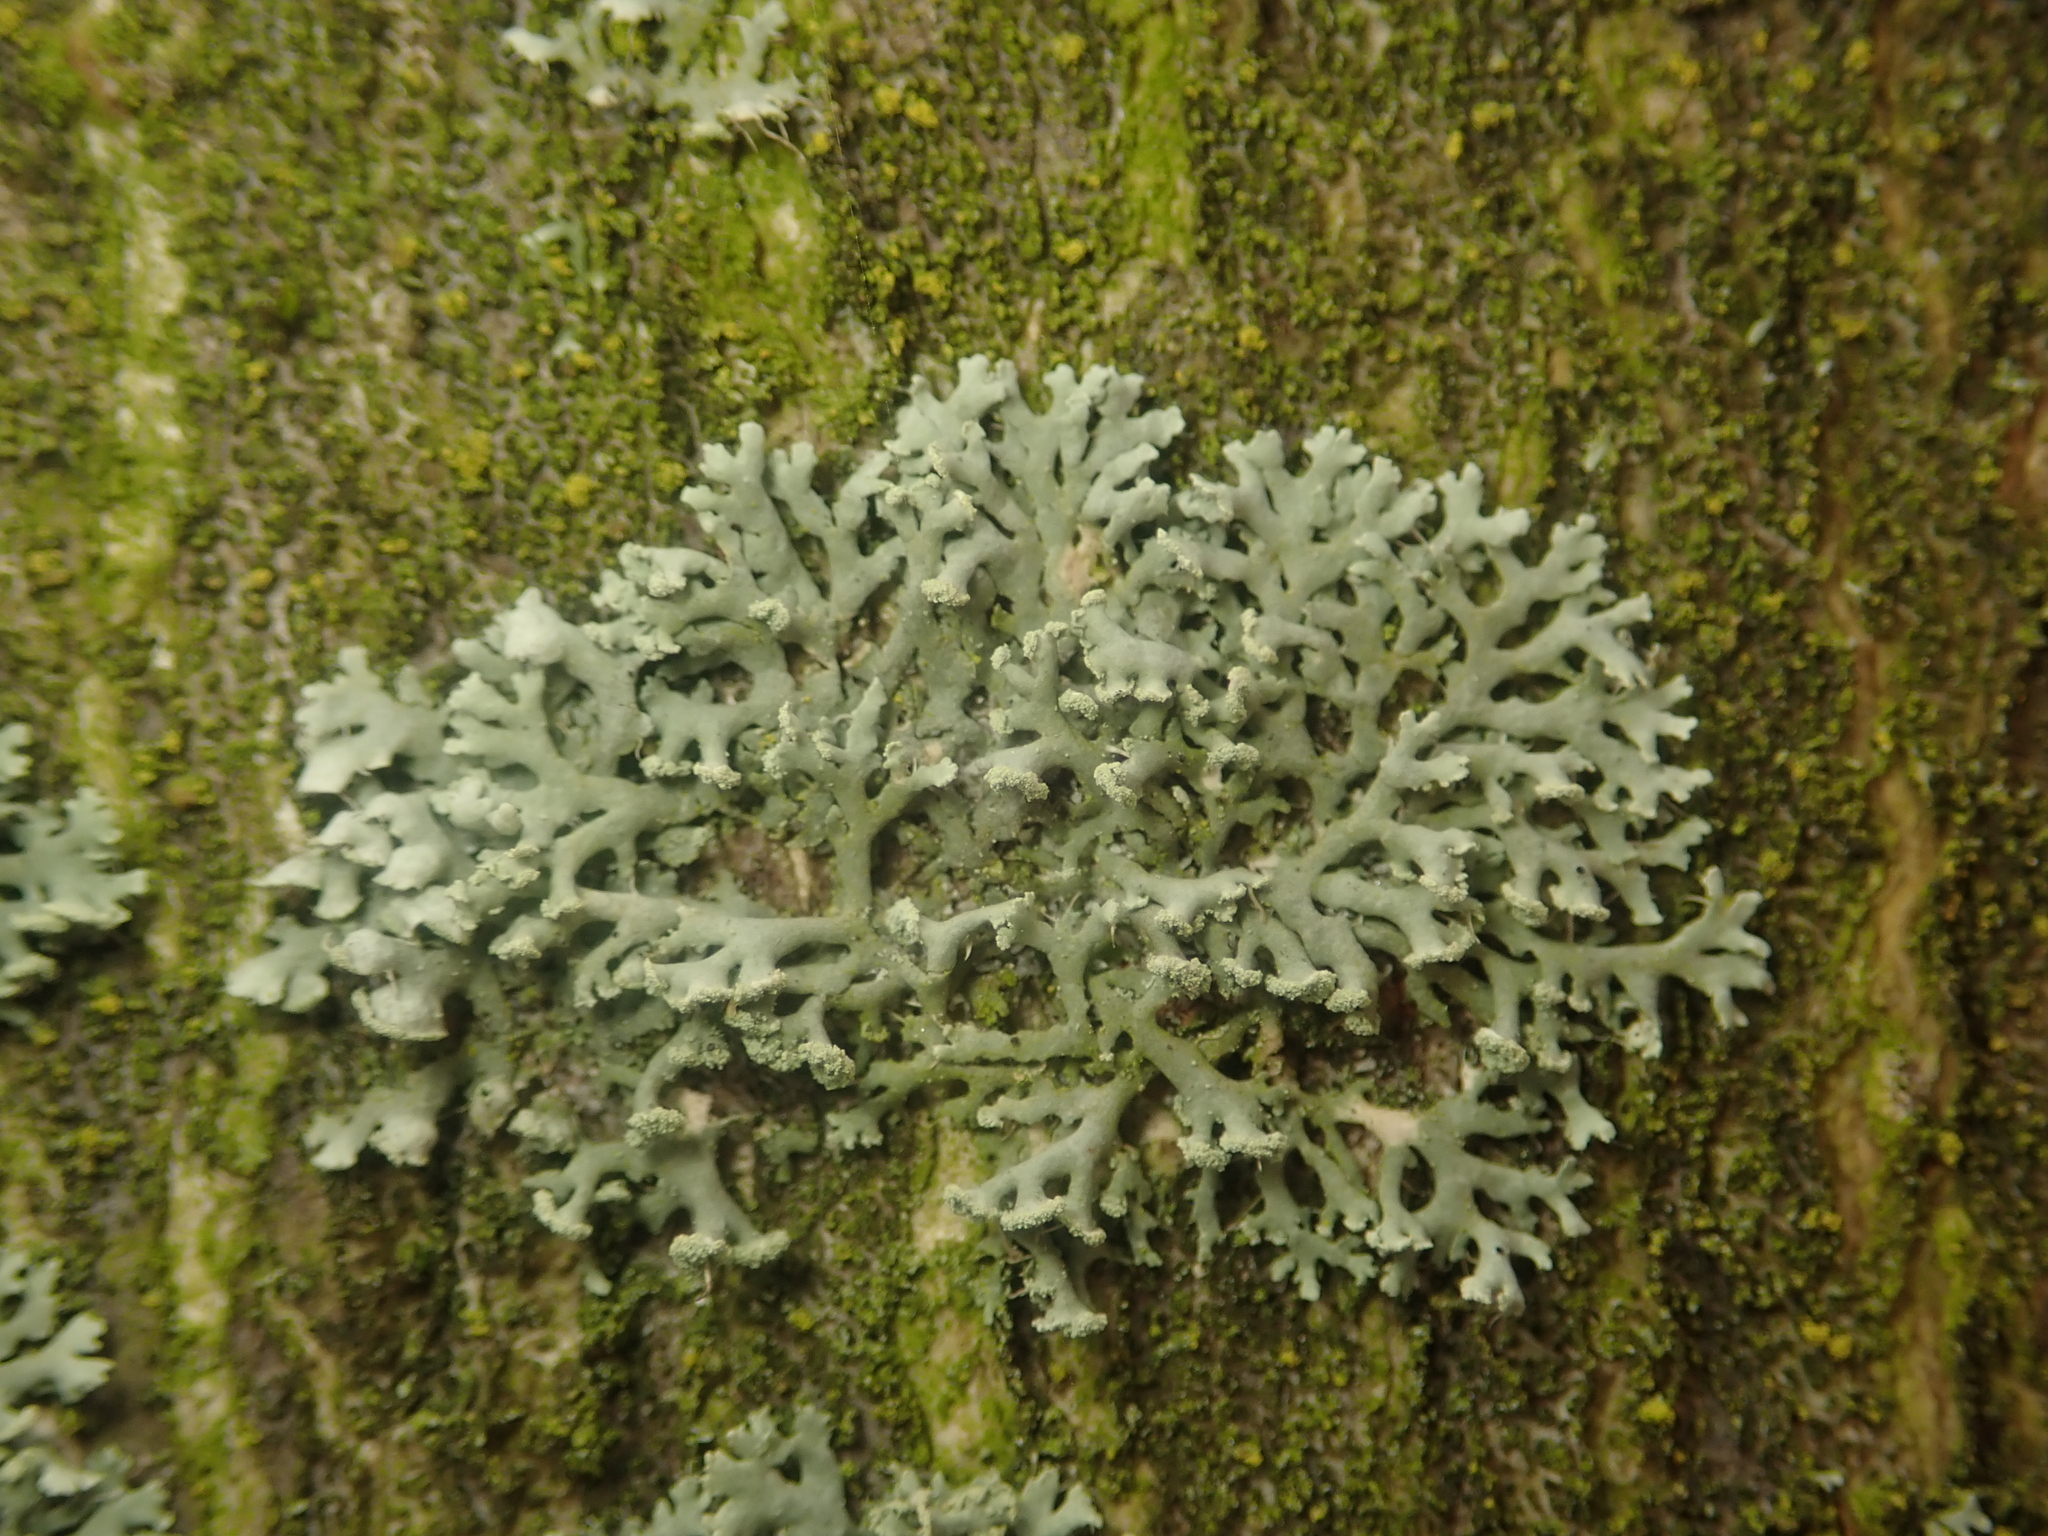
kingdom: Fungi
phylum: Ascomycota
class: Lecanoromycetes
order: Caliciales
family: Physciaceae
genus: Physcia
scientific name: Physcia dubia
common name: Powder-tipped rosette lichen
